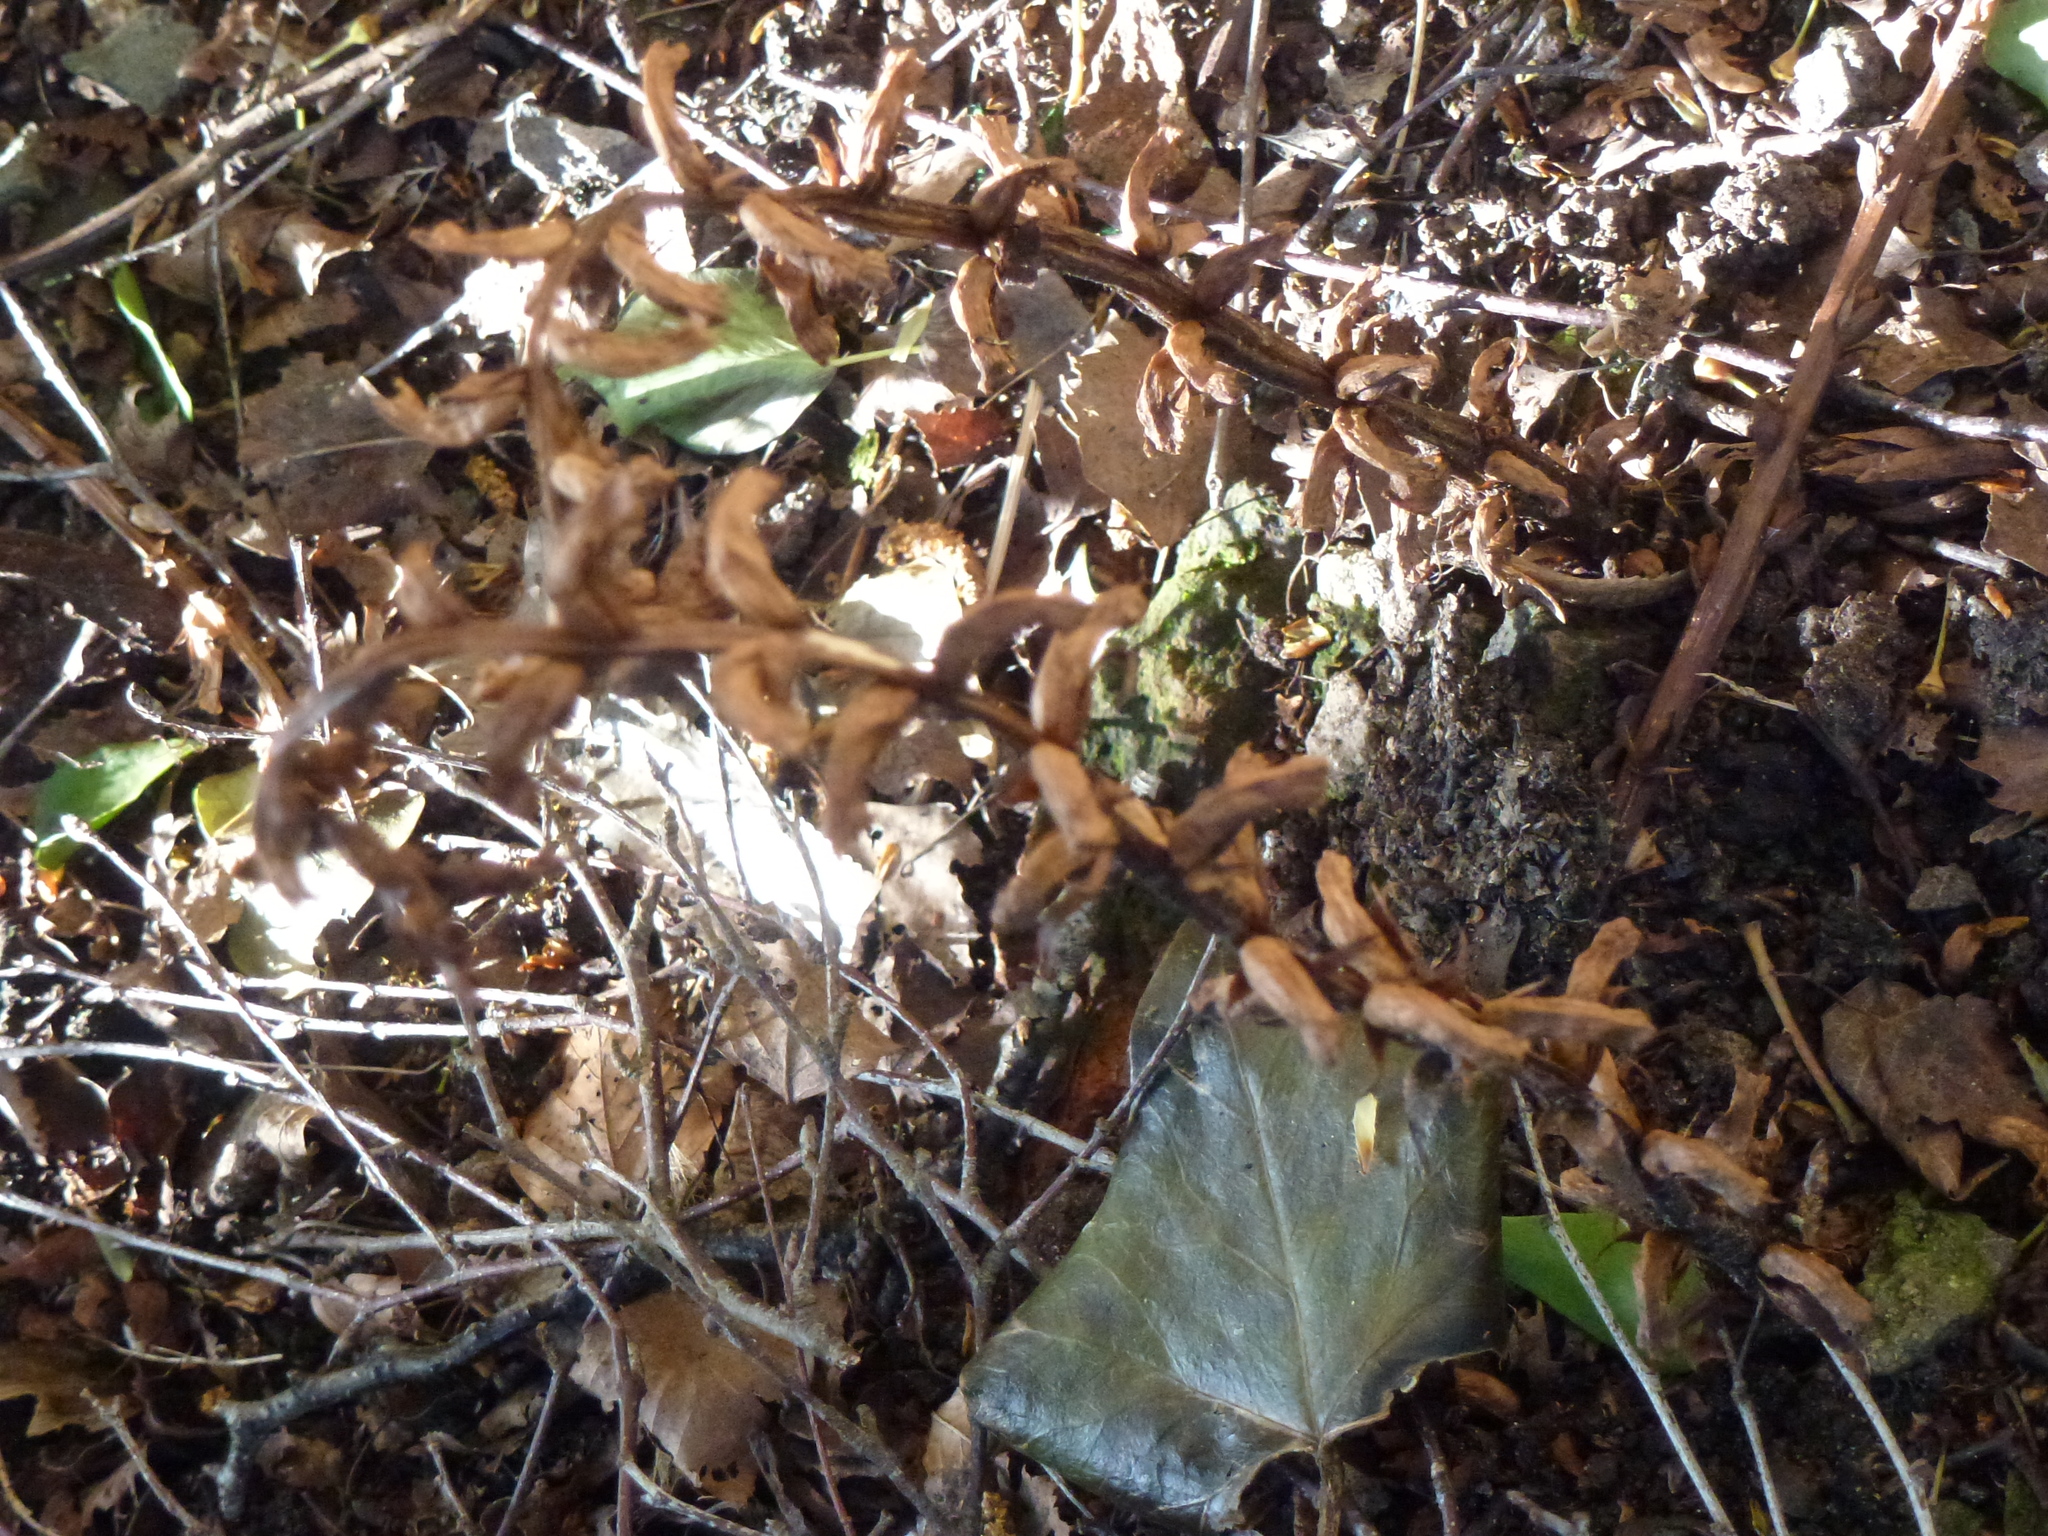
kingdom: Plantae
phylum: Tracheophyta
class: Magnoliopsida
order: Lamiales
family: Orobanchaceae
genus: Orobanche
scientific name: Orobanche hederae
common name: Ivy broomrape
